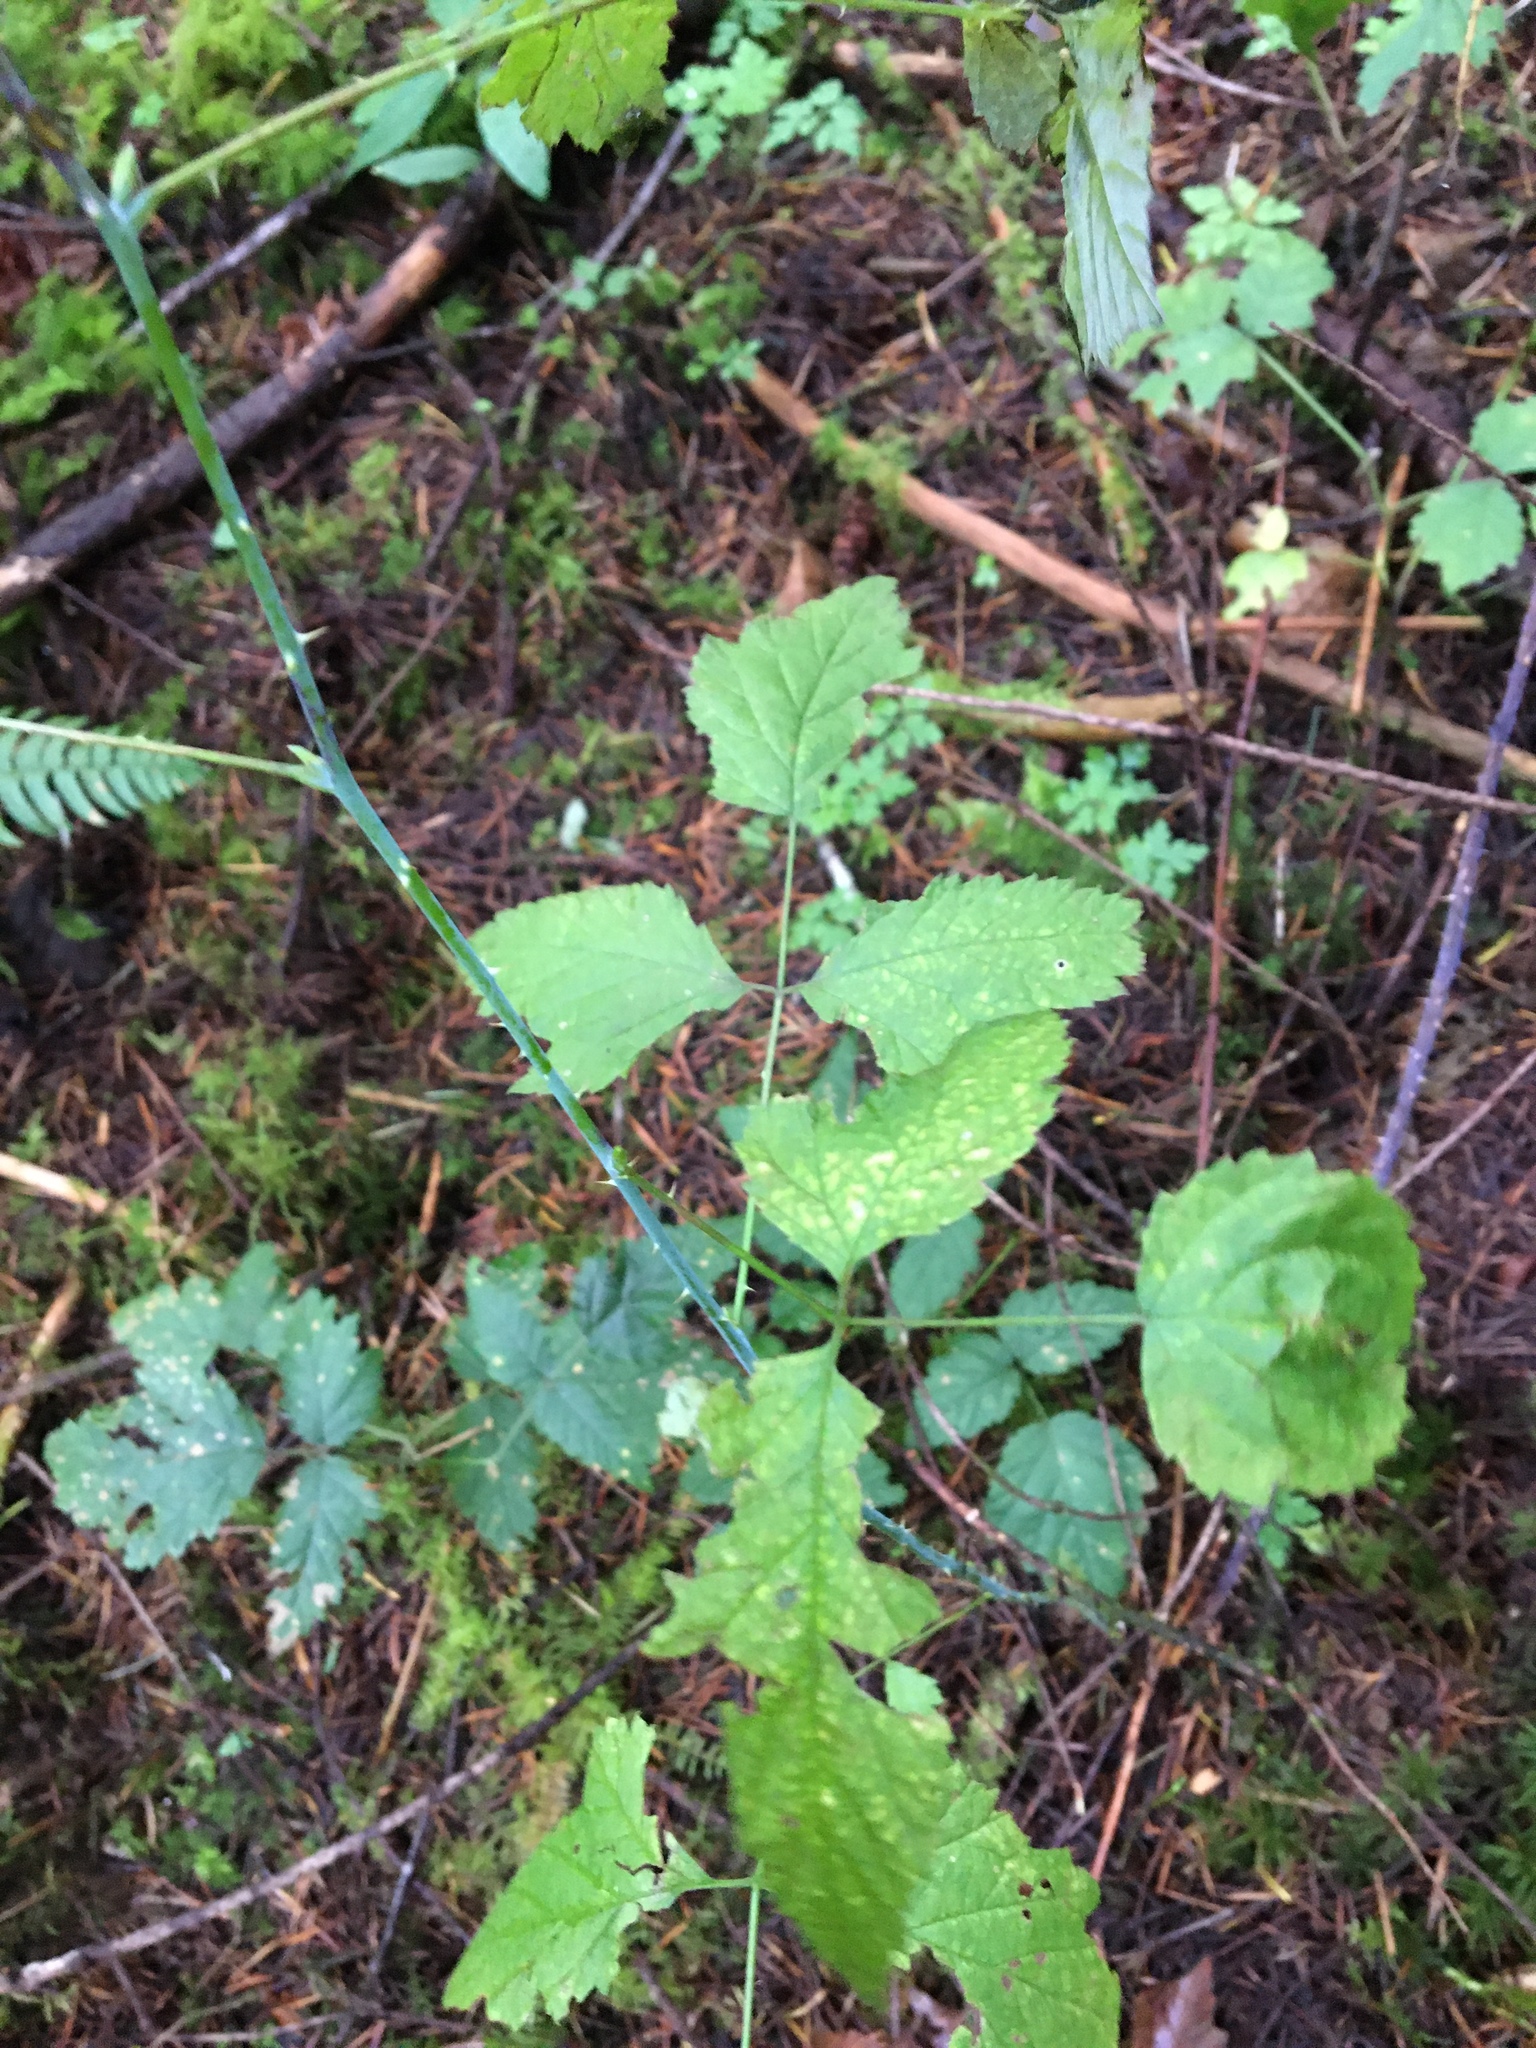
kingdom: Plantae
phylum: Tracheophyta
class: Magnoliopsida
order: Rosales
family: Rosaceae
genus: Rubus
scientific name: Rubus spectabilis
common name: Salmonberry
